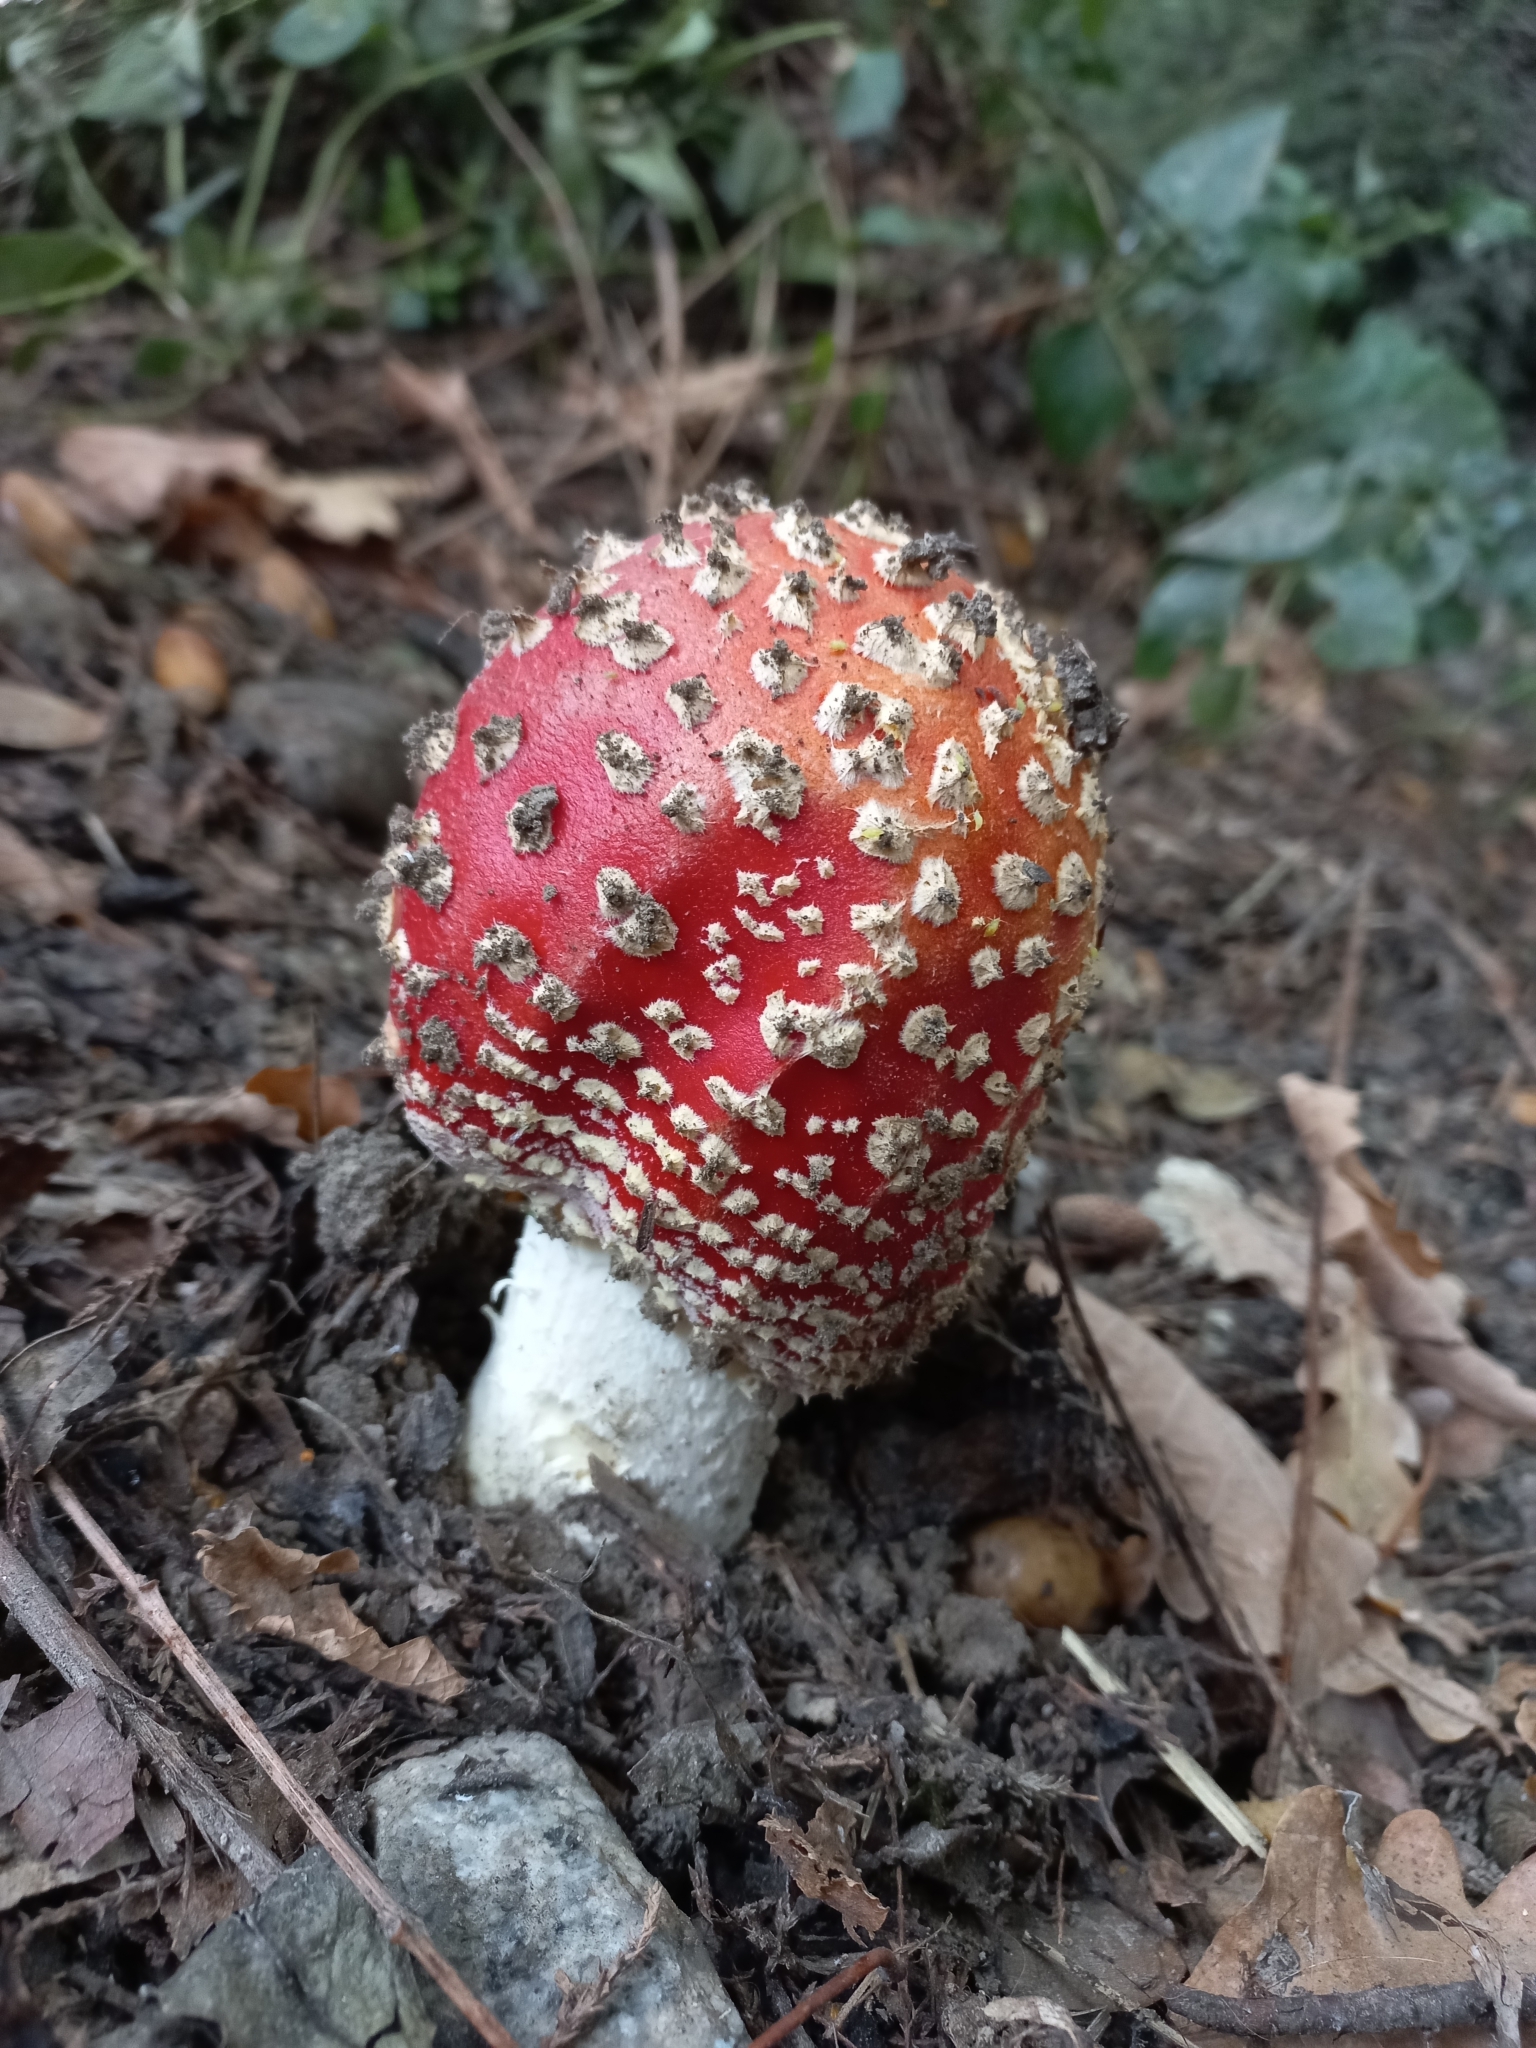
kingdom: Fungi
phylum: Basidiomycota
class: Agaricomycetes
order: Agaricales
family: Amanitaceae
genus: Amanita
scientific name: Amanita muscaria
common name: Fly agaric
